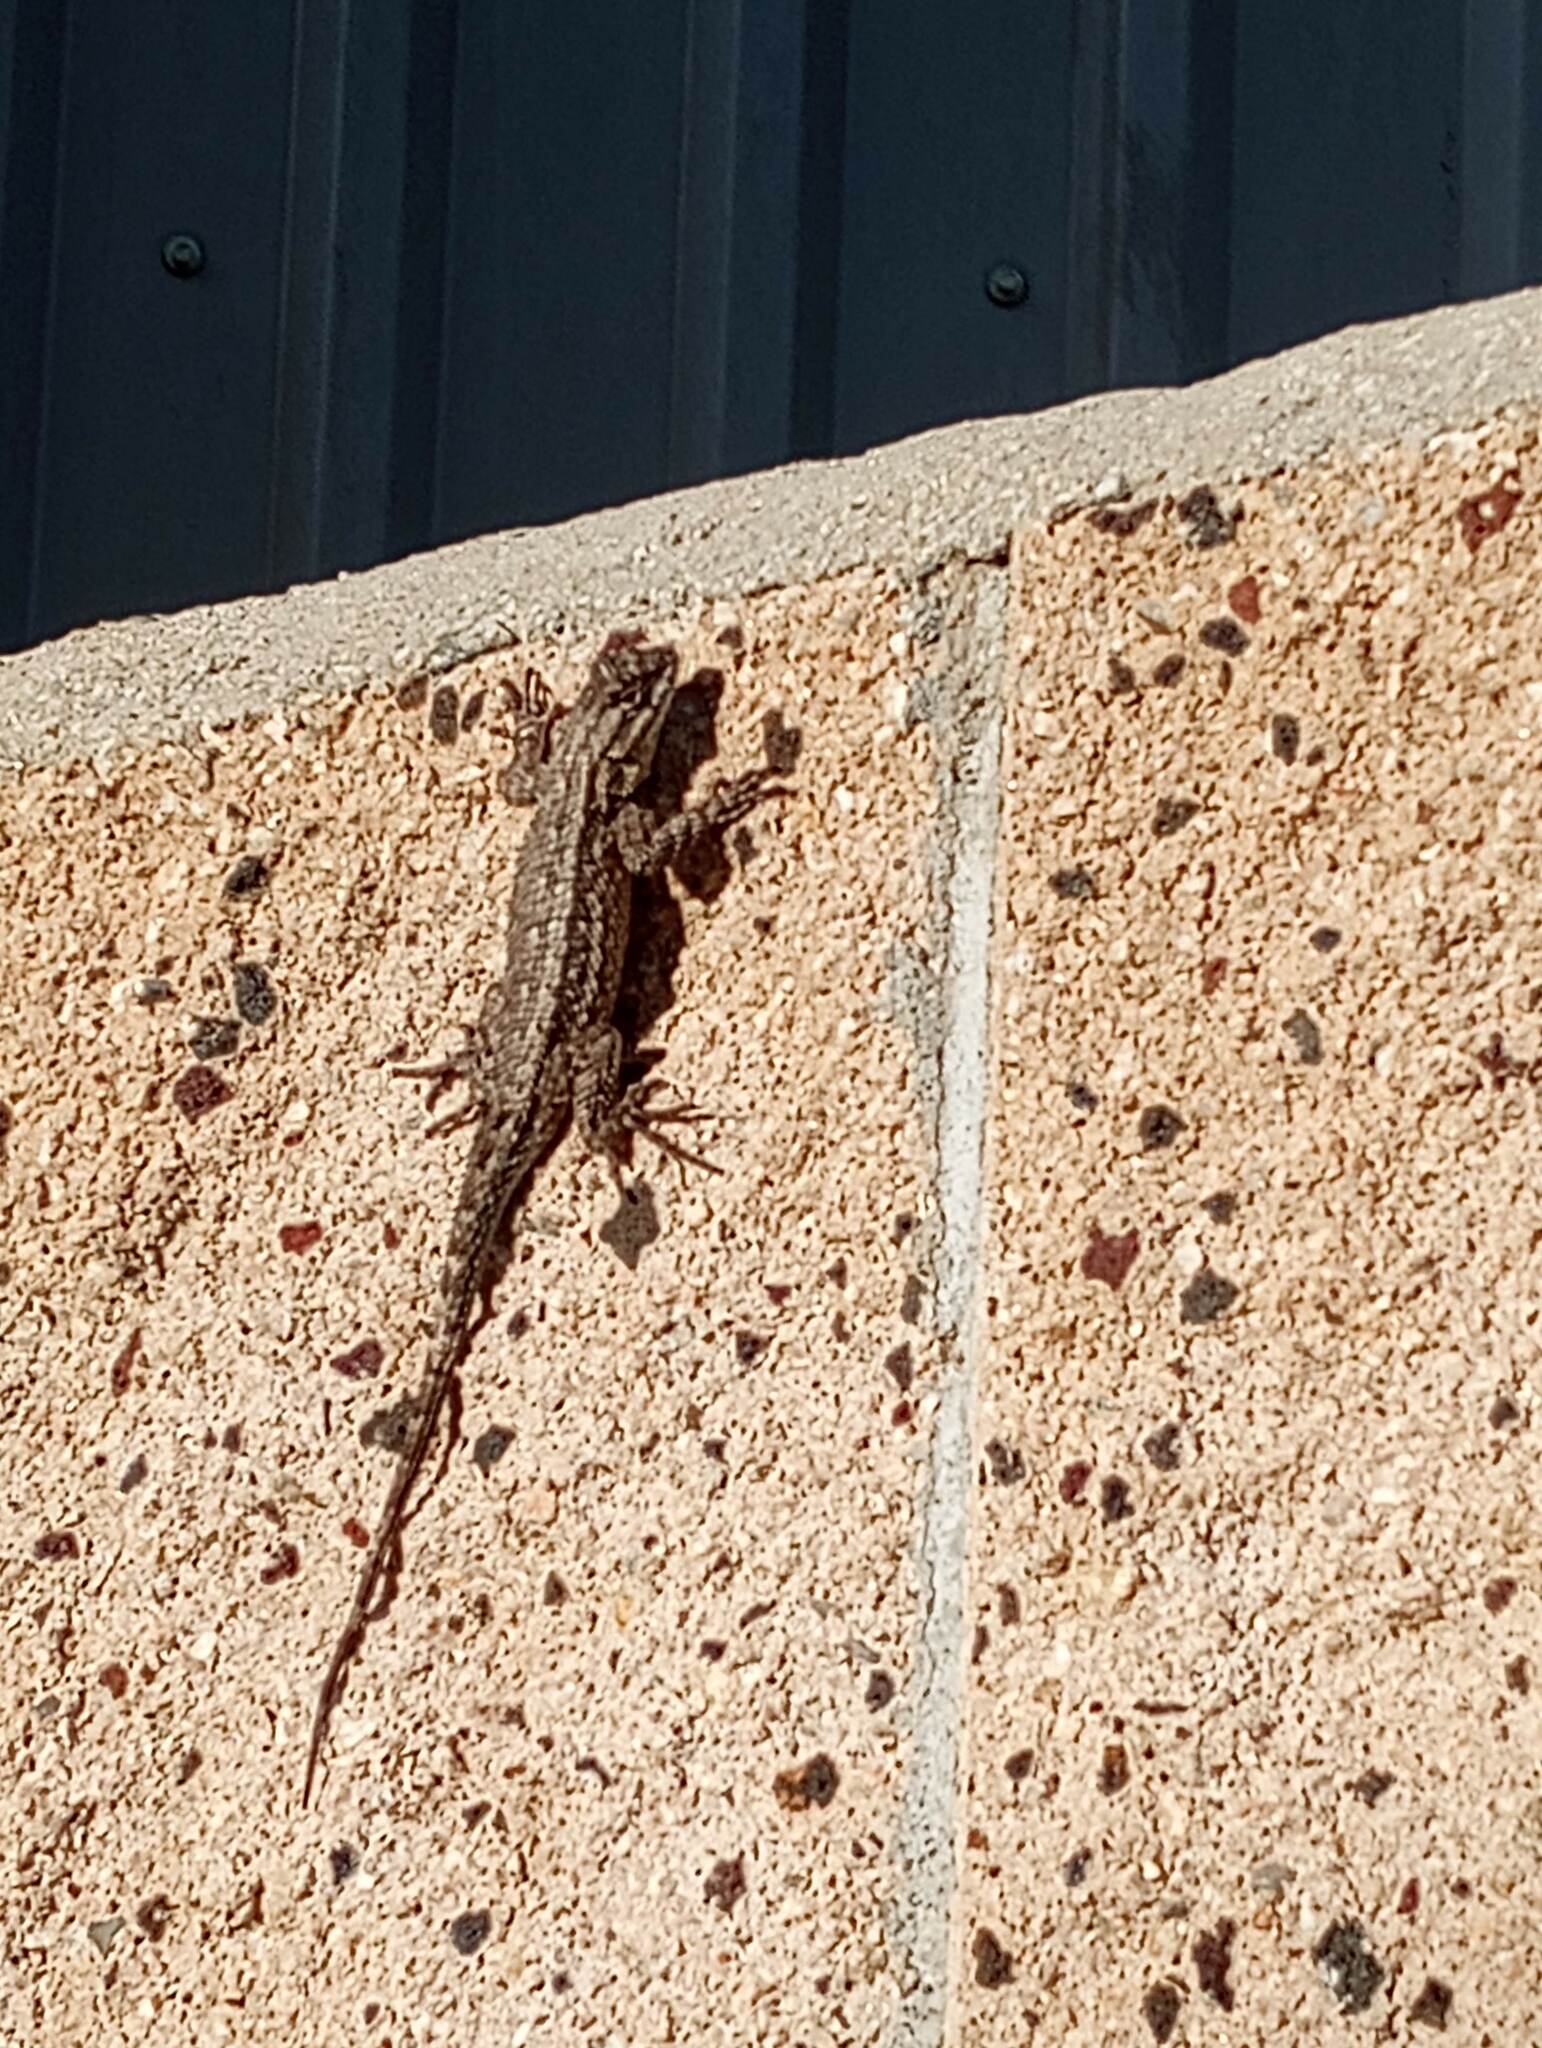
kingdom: Animalia
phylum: Chordata
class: Squamata
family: Phrynosomatidae
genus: Sceloporus
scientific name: Sceloporus occidentalis
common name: Western fence lizard
